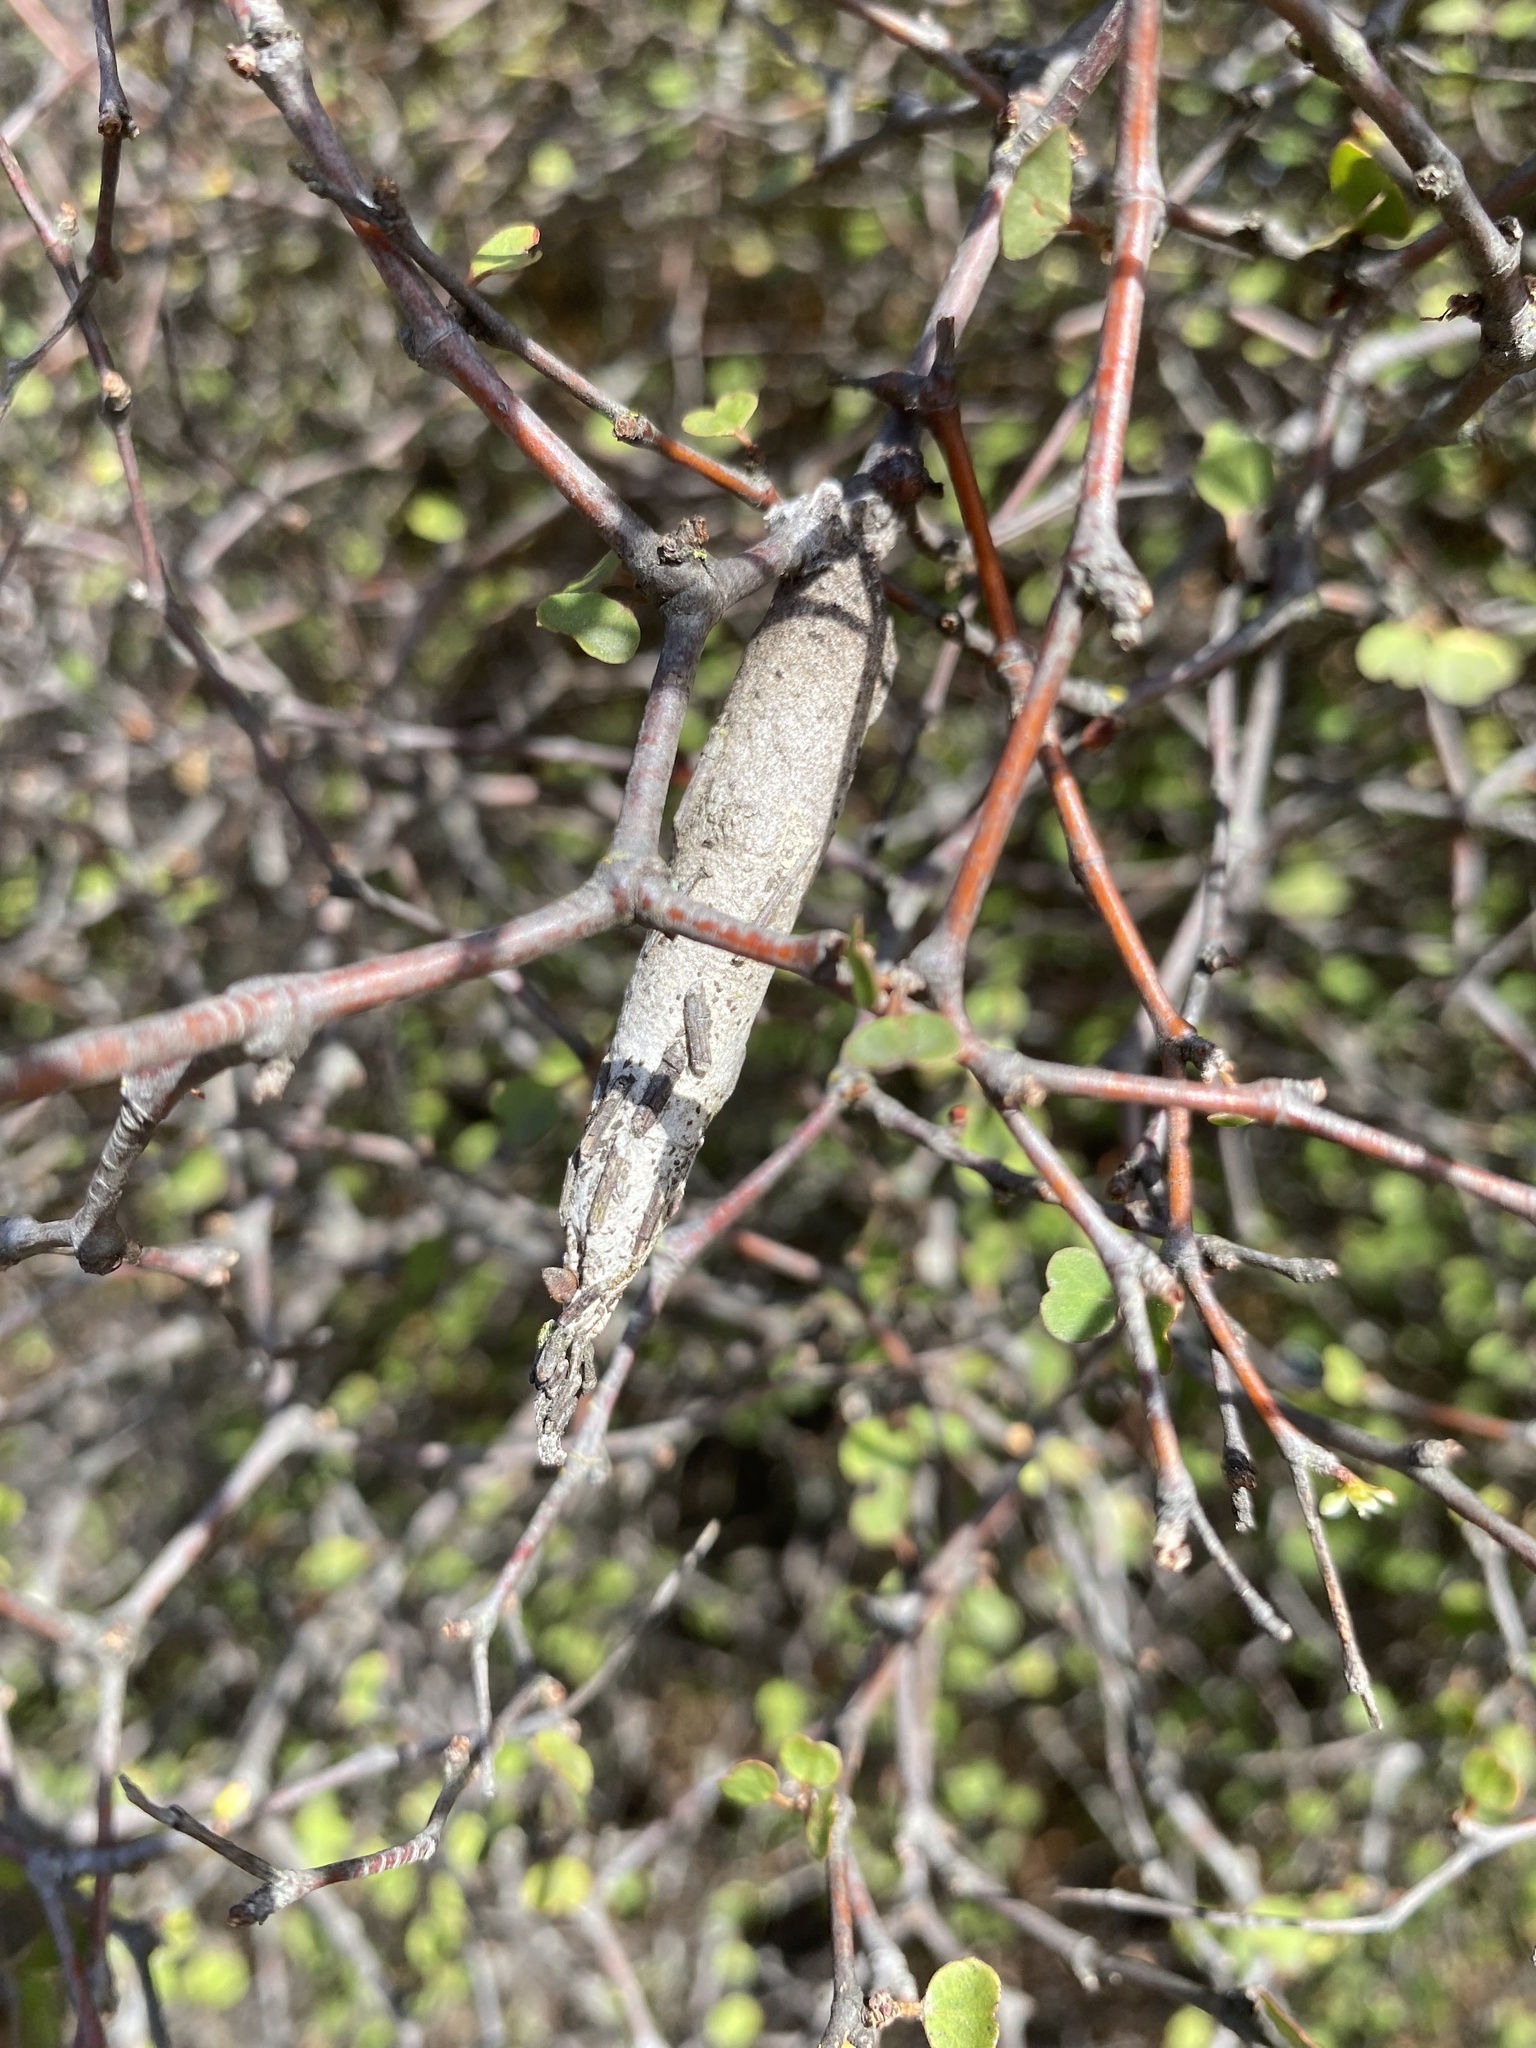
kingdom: Animalia
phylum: Arthropoda
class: Insecta
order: Lepidoptera
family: Psychidae
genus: Liothula
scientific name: Liothula omnivora
